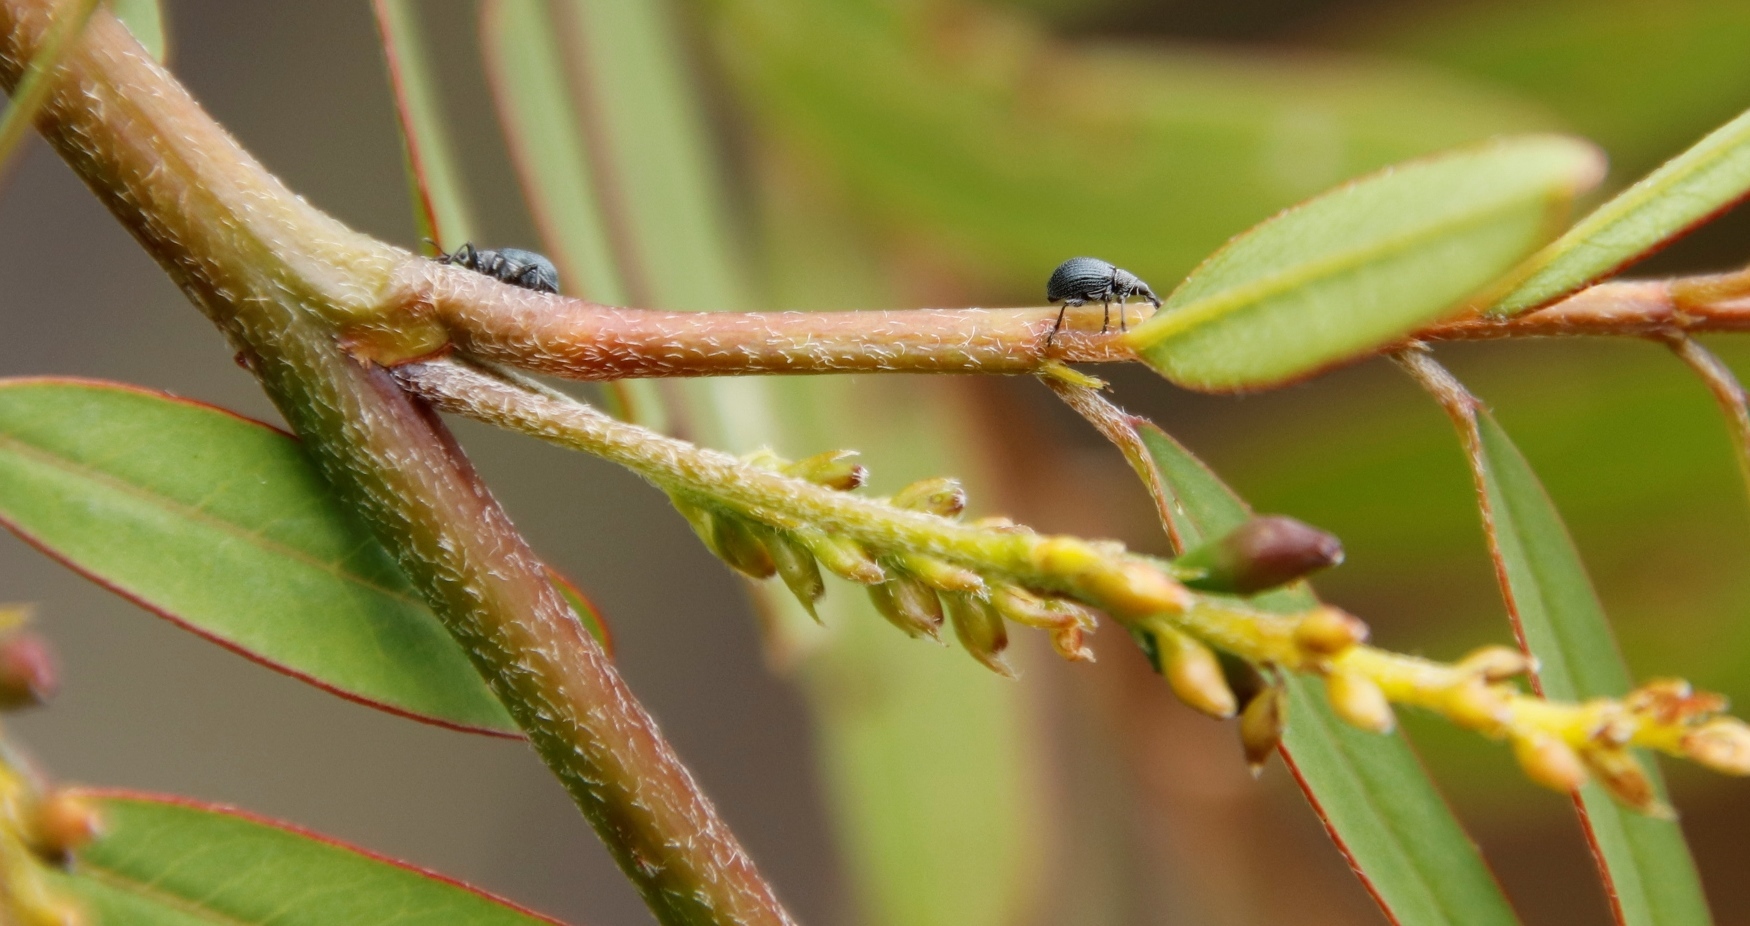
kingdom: Animalia
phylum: Arthropoda
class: Insecta
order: Coleoptera
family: Brentidae
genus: Trichapion
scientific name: Trichapion
